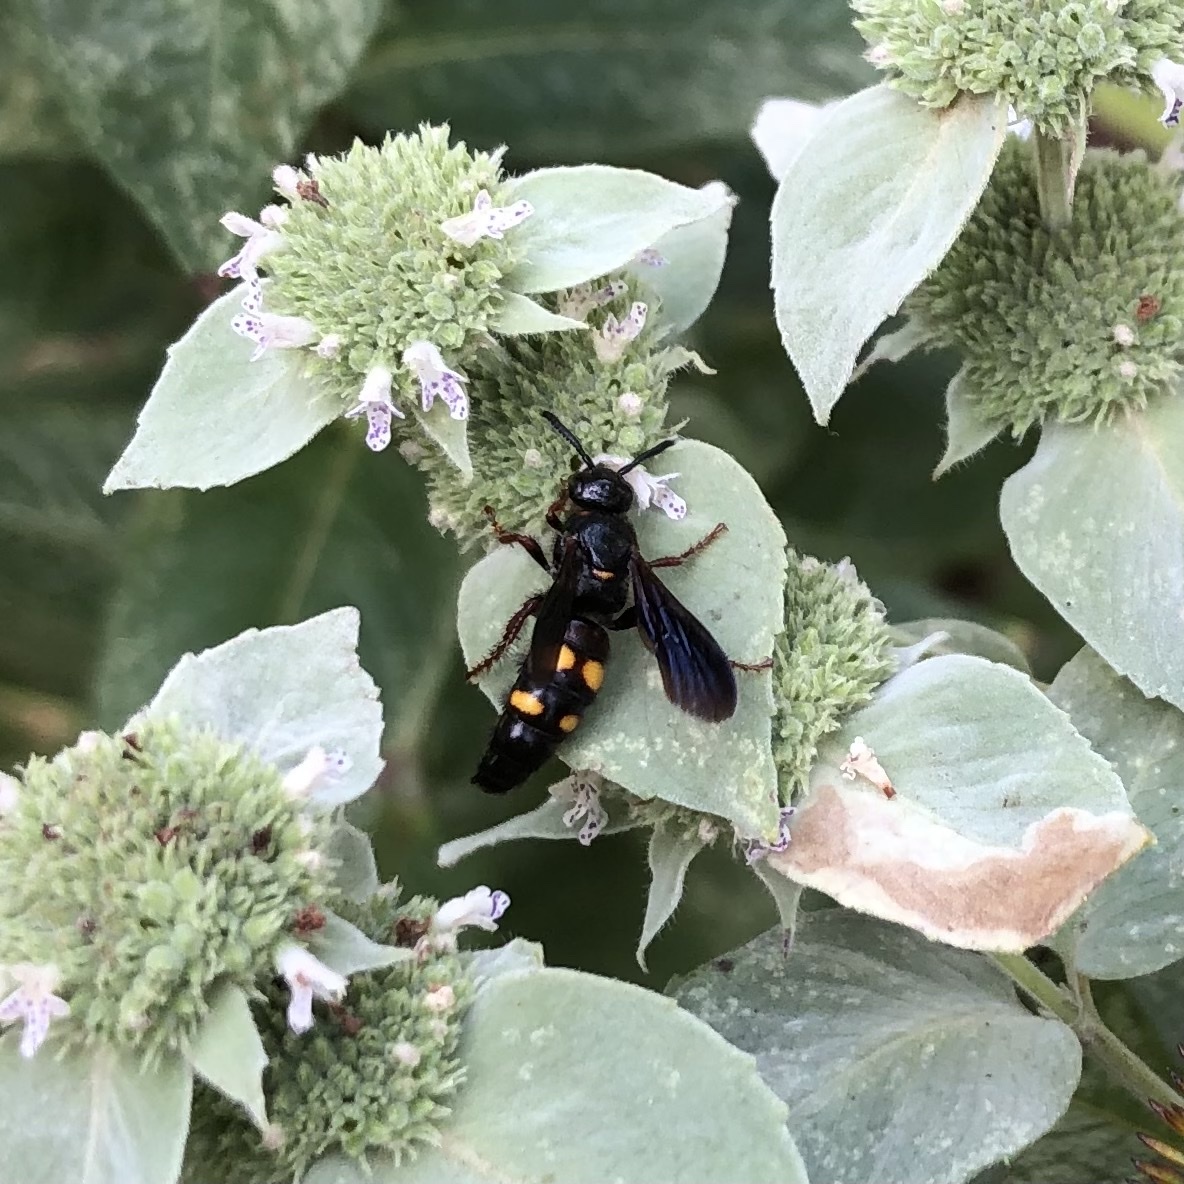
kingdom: Animalia
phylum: Arthropoda
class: Insecta
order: Hymenoptera
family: Scoliidae
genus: Scolia
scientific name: Scolia nobilitata
